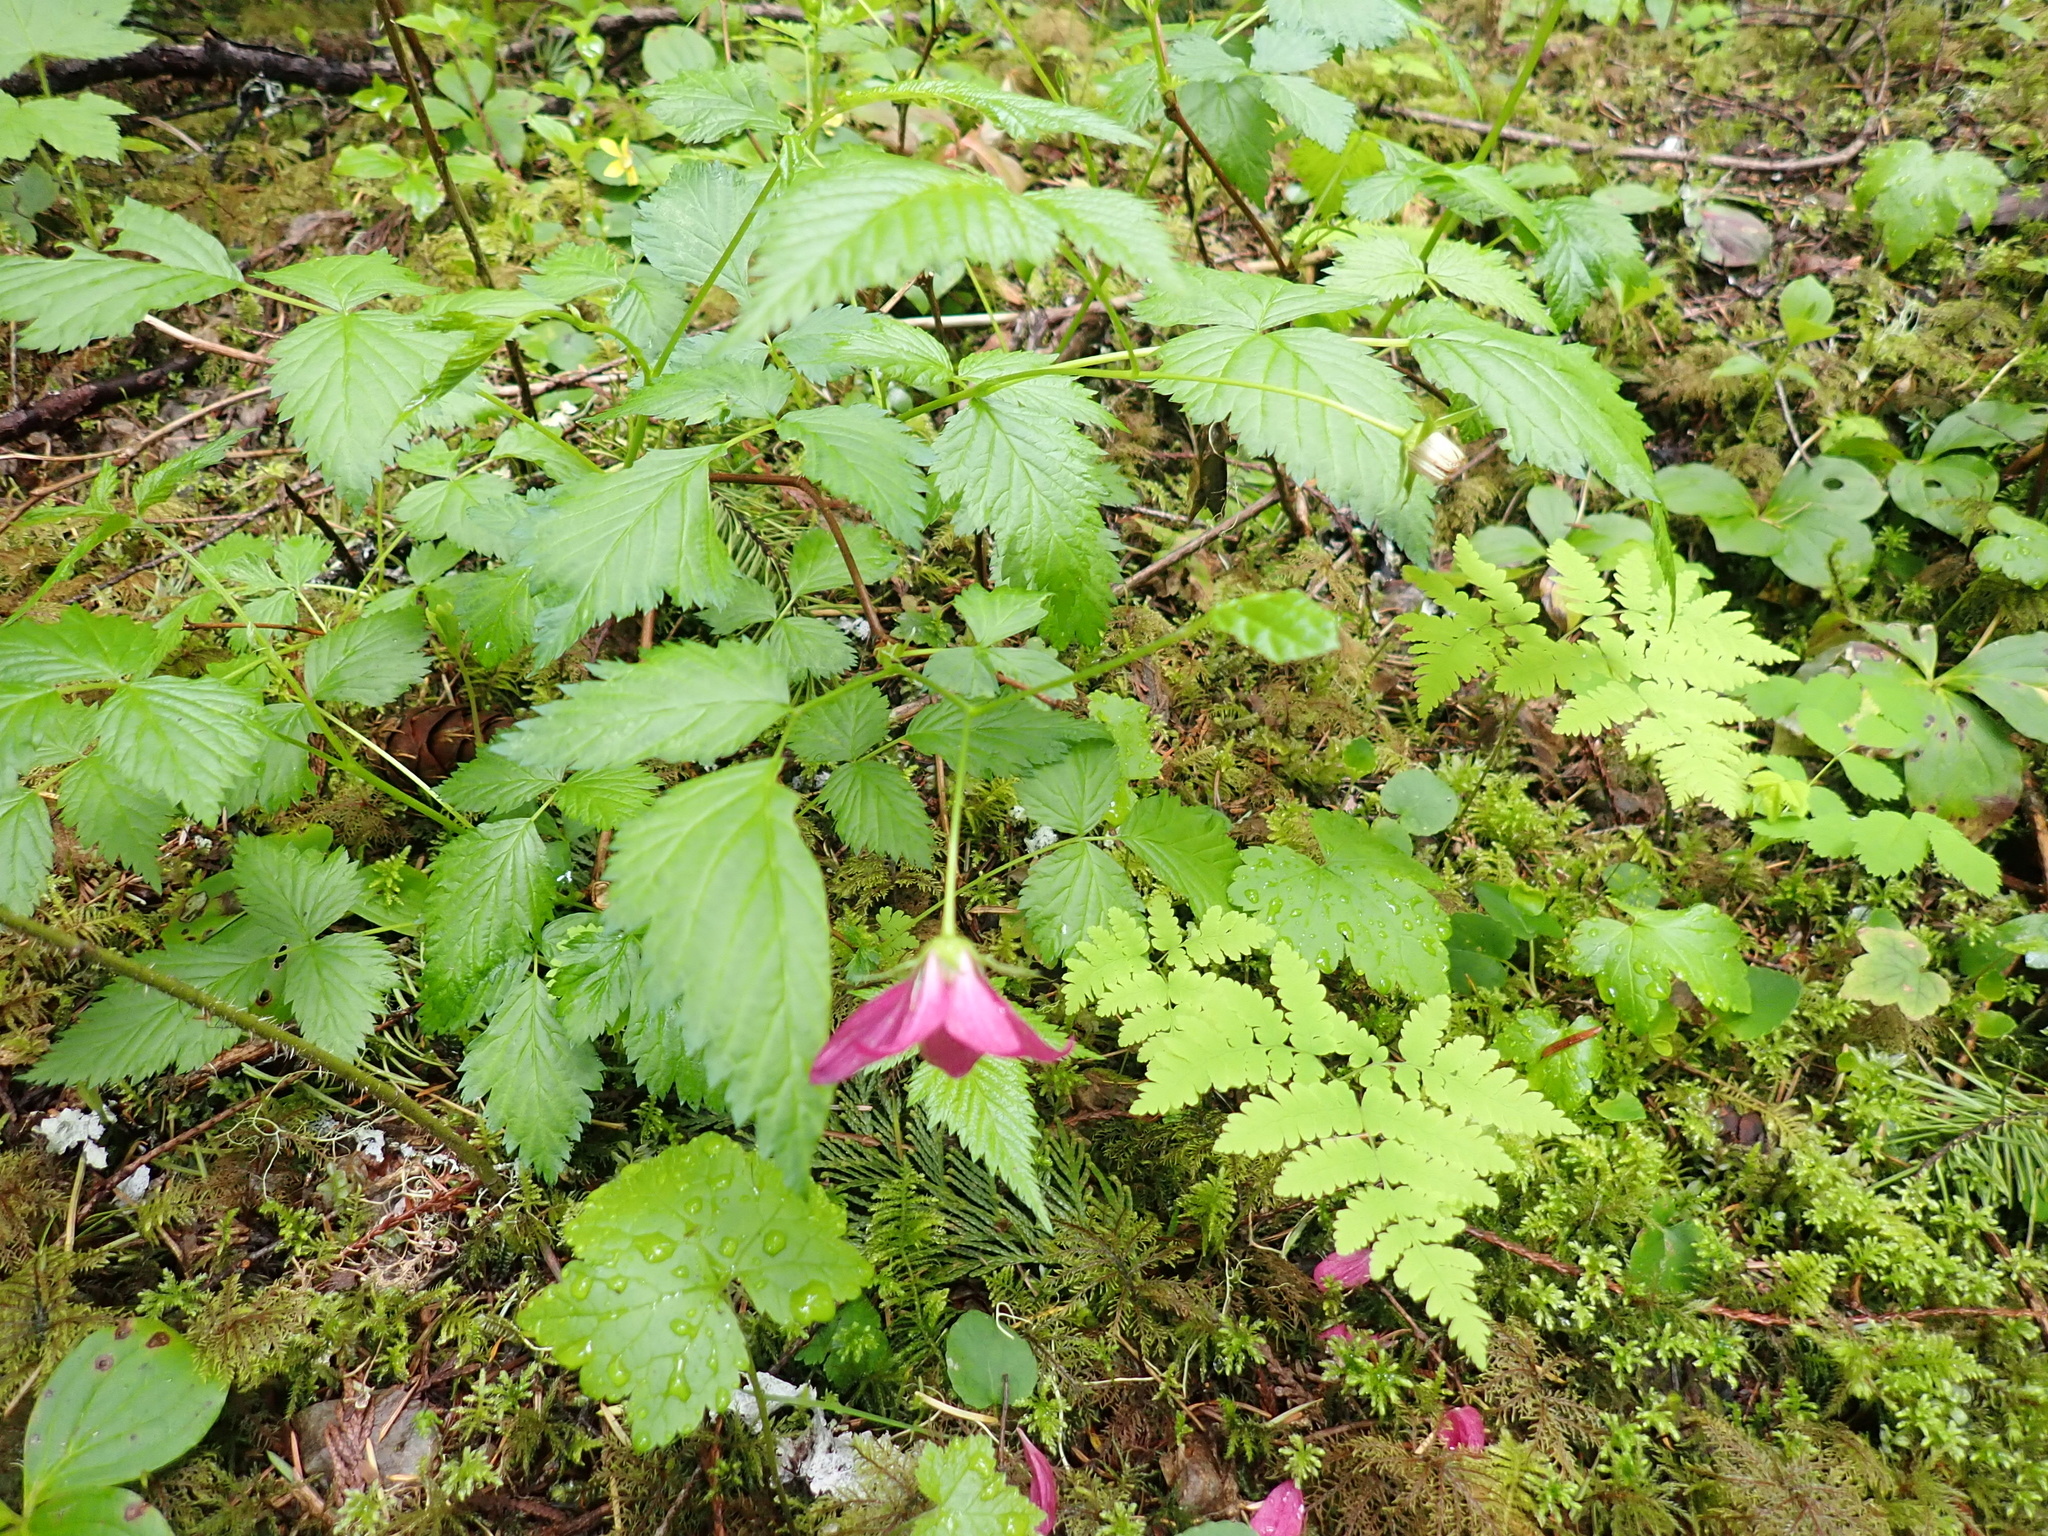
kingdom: Plantae
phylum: Tracheophyta
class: Magnoliopsida
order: Rosales
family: Rosaceae
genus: Rubus
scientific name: Rubus spectabilis
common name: Salmonberry
